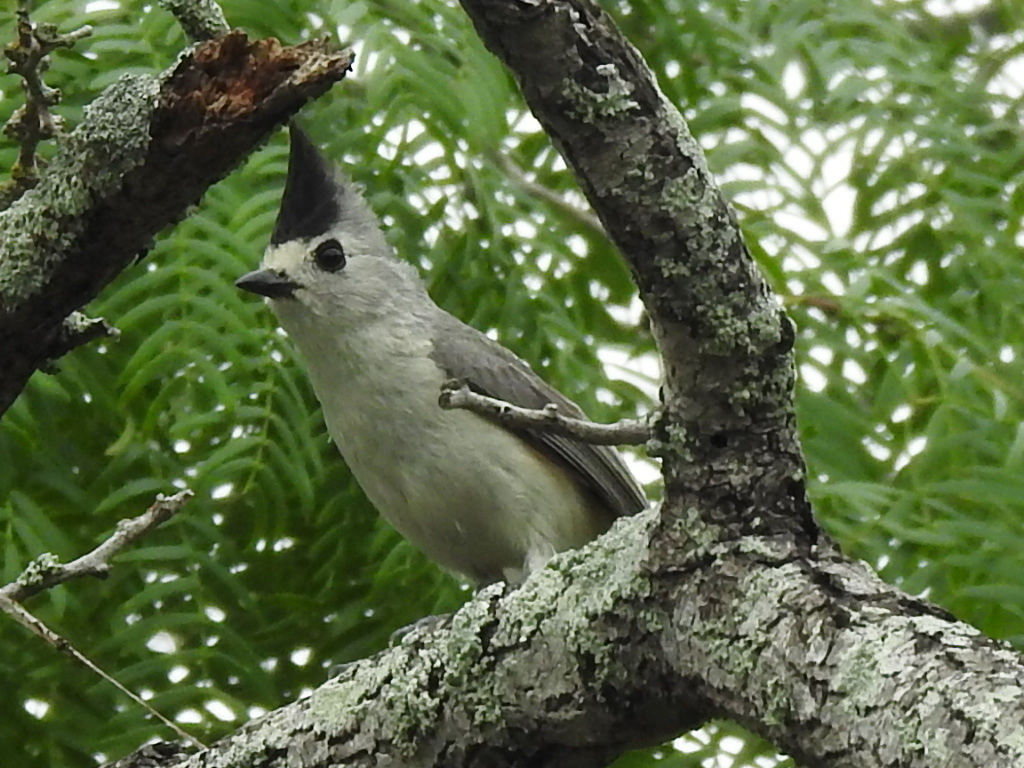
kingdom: Animalia
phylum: Chordata
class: Aves
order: Passeriformes
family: Paridae
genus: Baeolophus
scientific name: Baeolophus atricristatus
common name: Black-crested titmouse
